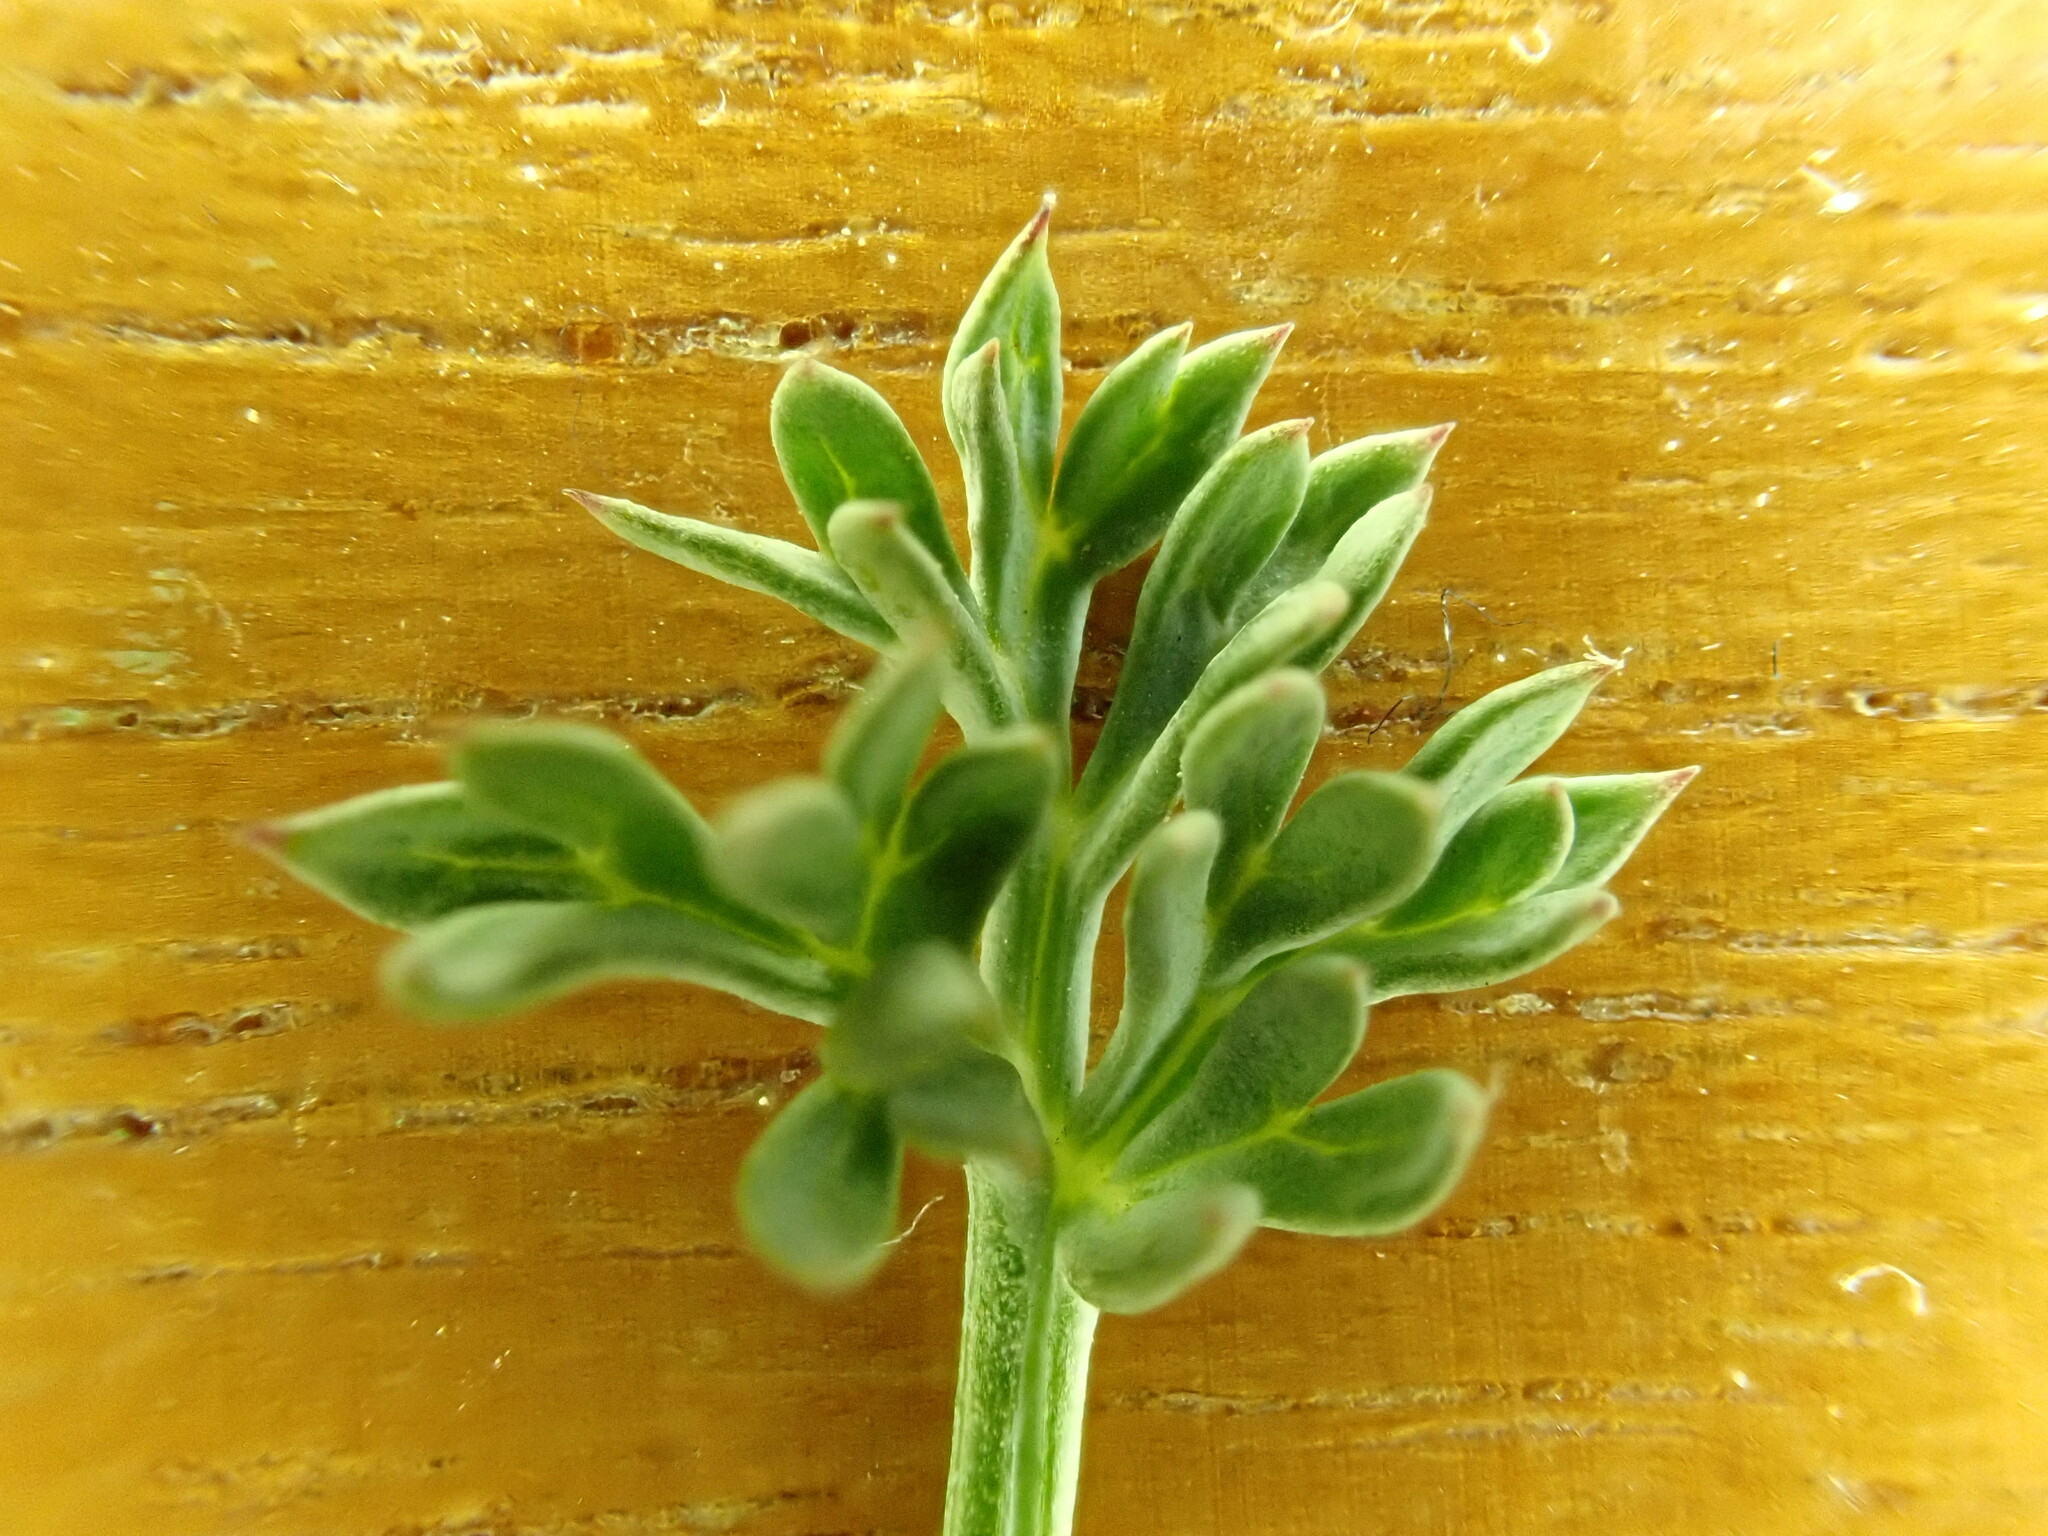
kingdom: Plantae
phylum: Tracheophyta
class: Magnoliopsida
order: Apiales
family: Apiaceae
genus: Lomatium
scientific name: Lomatium cuspidatum
